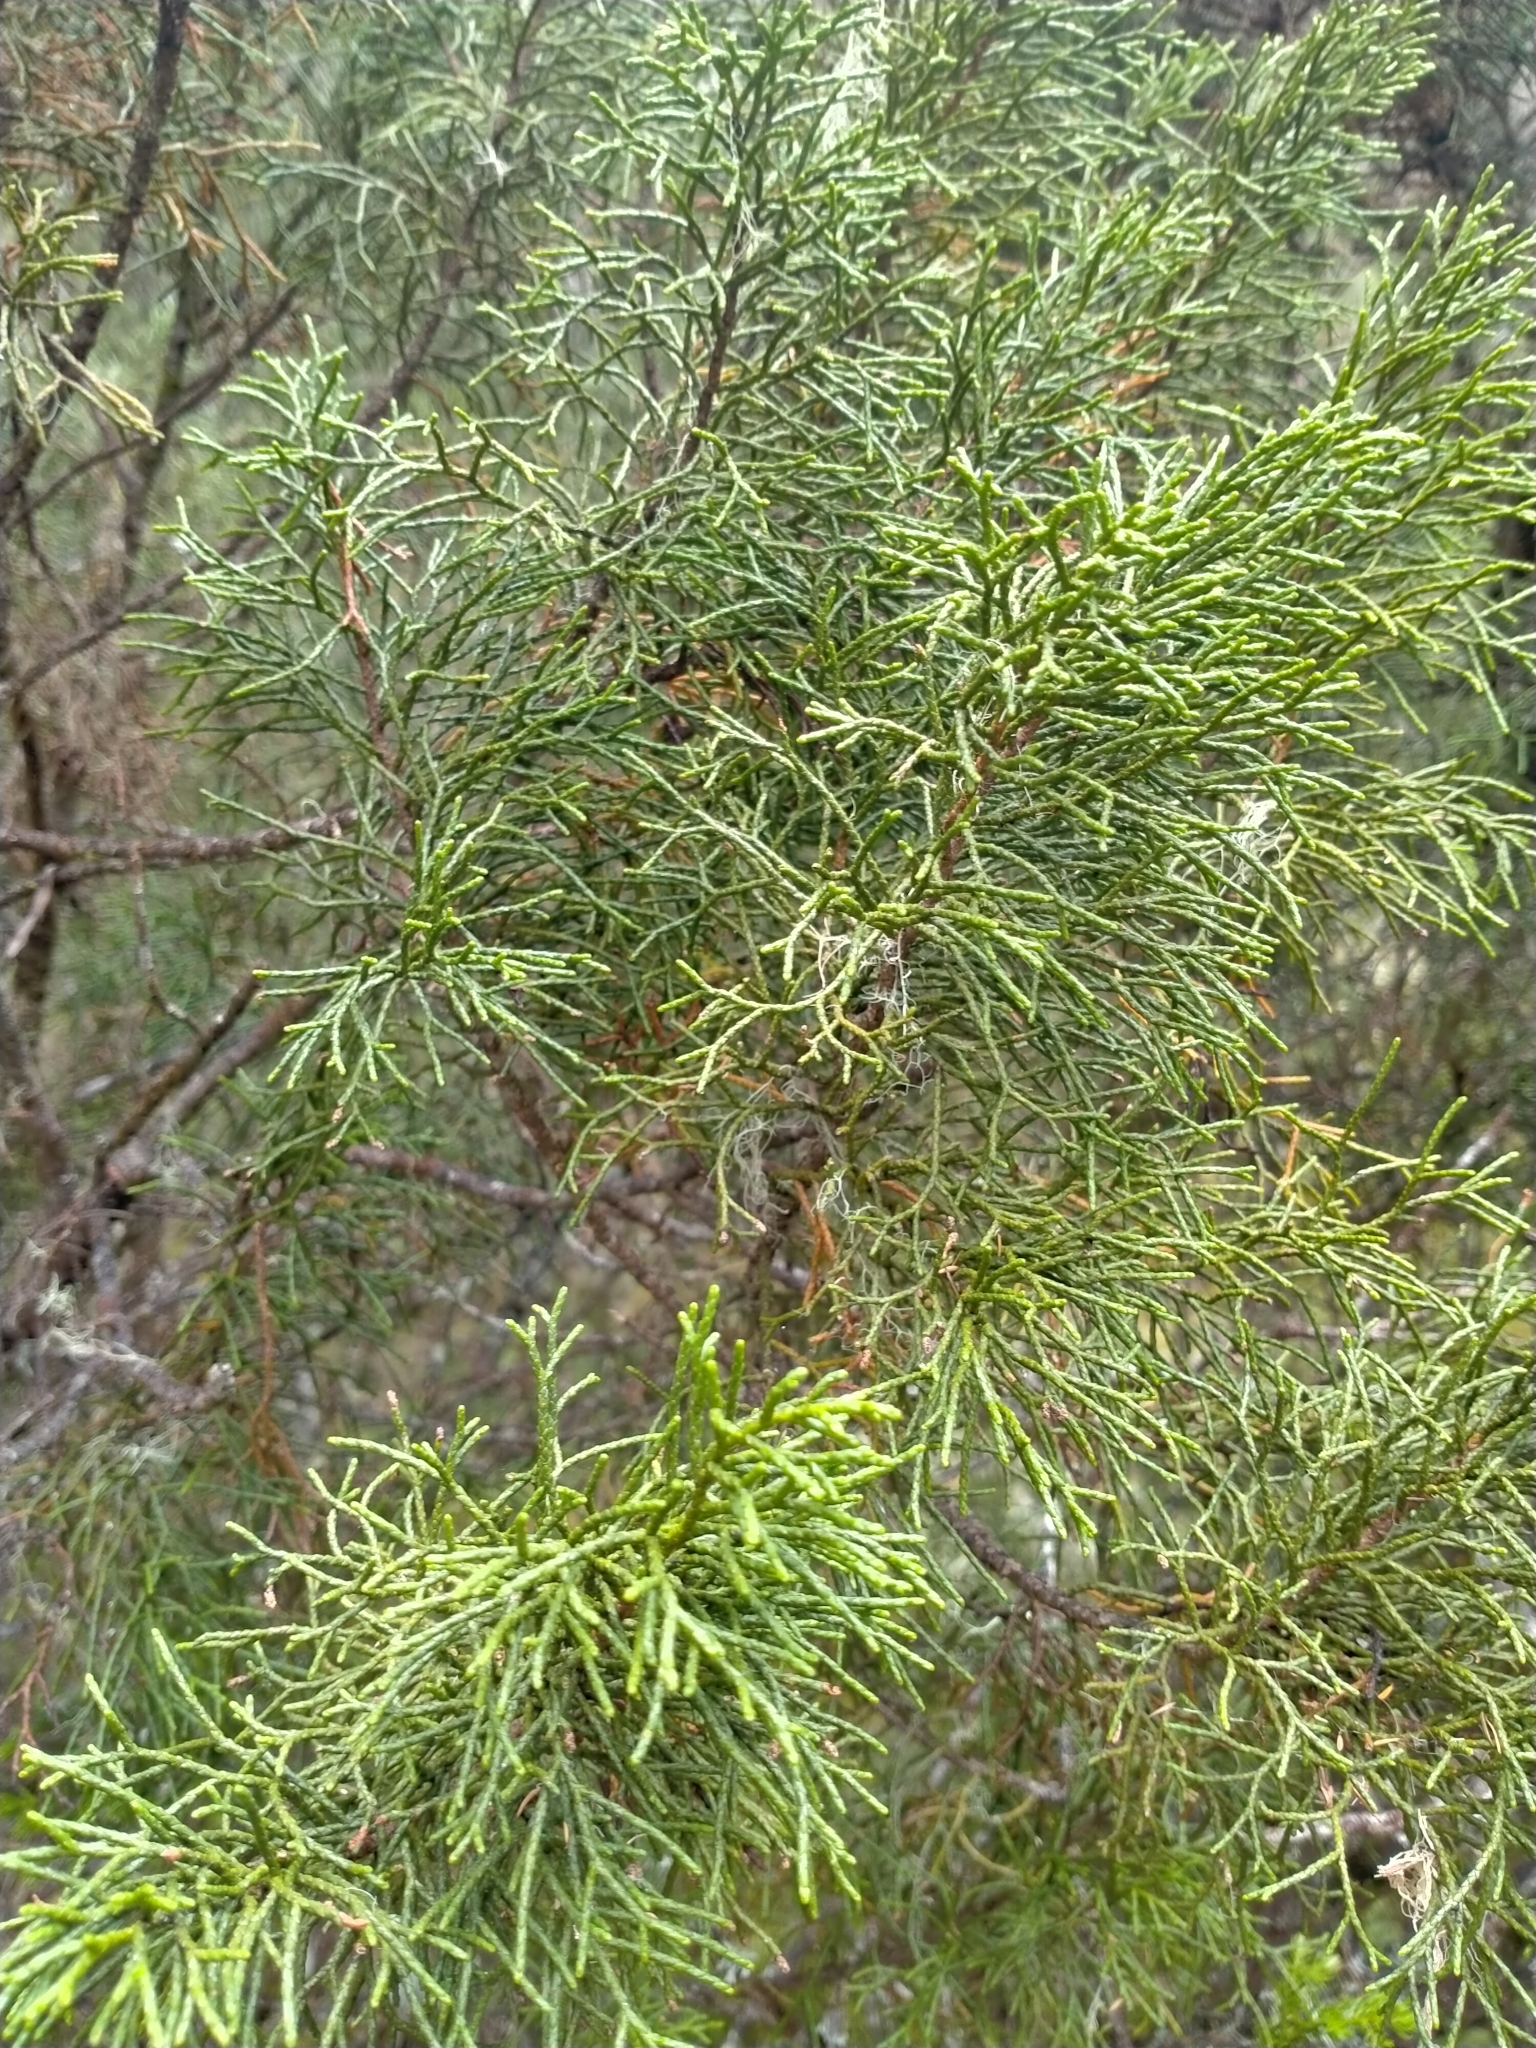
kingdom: Plantae
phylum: Tracheophyta
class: Pinopsida
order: Pinales
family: Podocarpaceae
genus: Halocarpus
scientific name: Halocarpus bidwillii
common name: Bog pine
